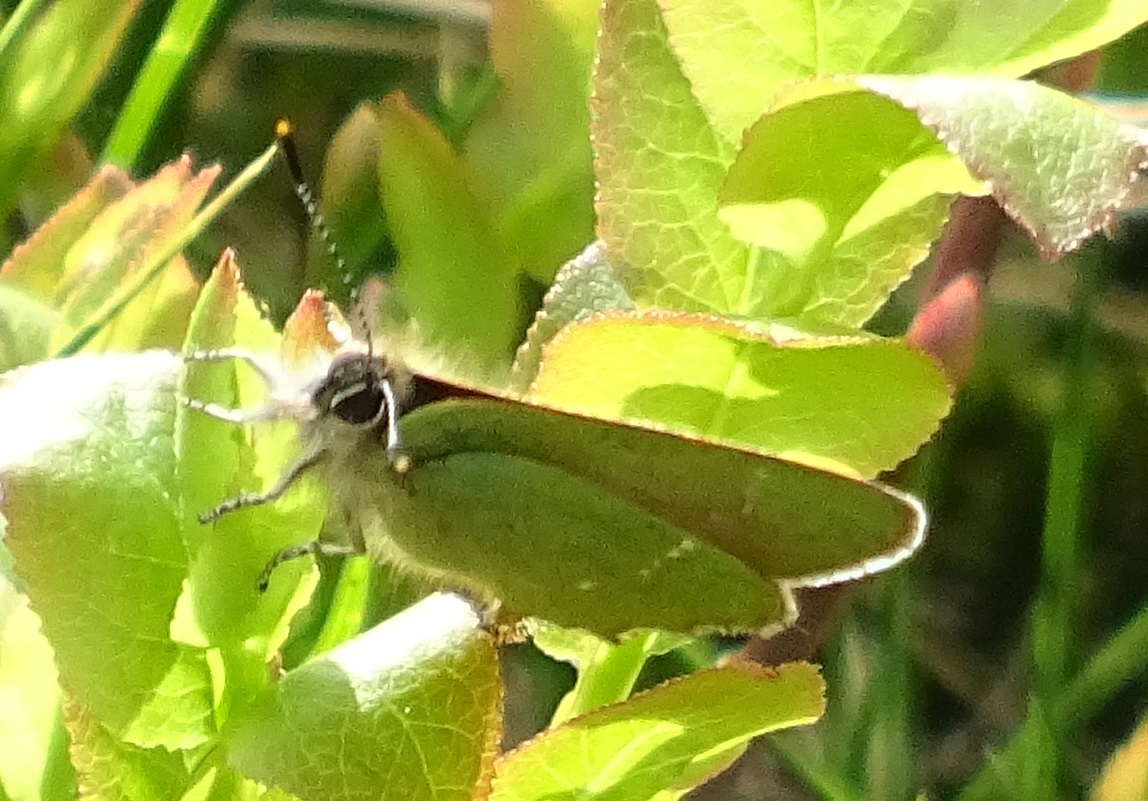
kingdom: Animalia
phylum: Arthropoda
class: Insecta
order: Lepidoptera
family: Lycaenidae
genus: Callophrys
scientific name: Callophrys rubi
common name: Green hairstreak
